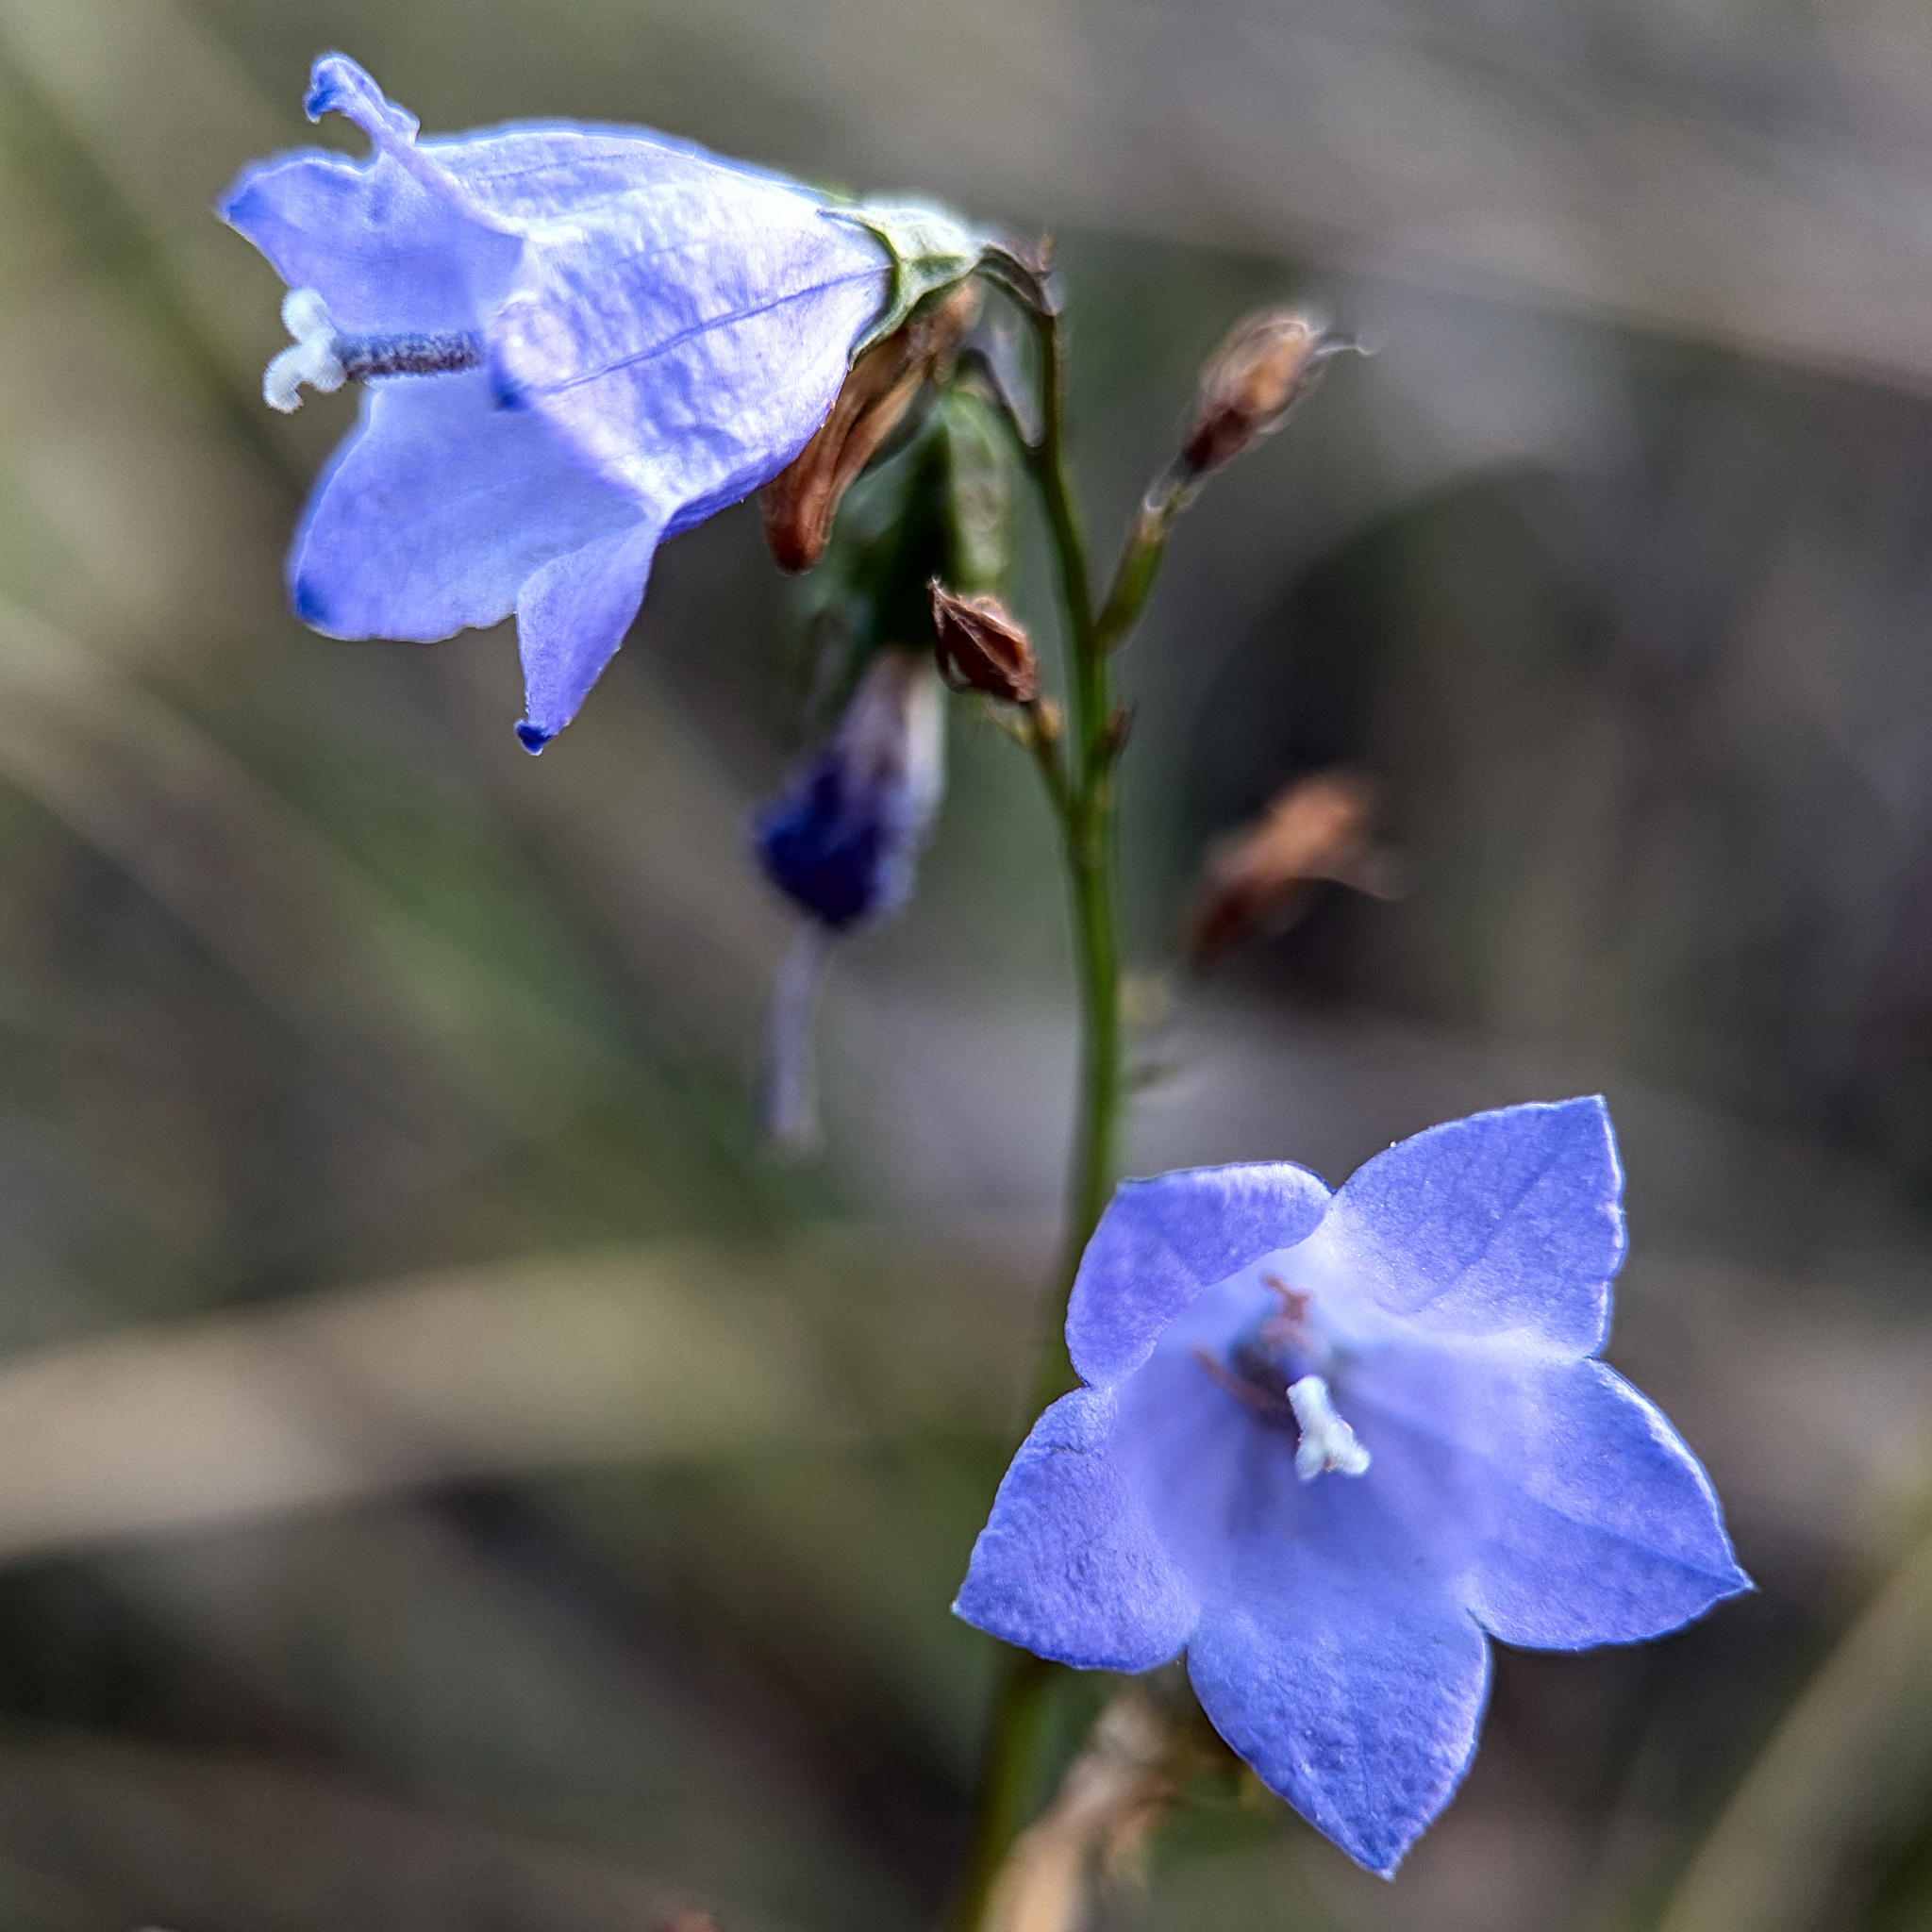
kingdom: Plantae
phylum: Tracheophyta
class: Magnoliopsida
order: Asterales
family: Campanulaceae
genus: Campanula
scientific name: Campanula rotundifolia
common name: Harebell
